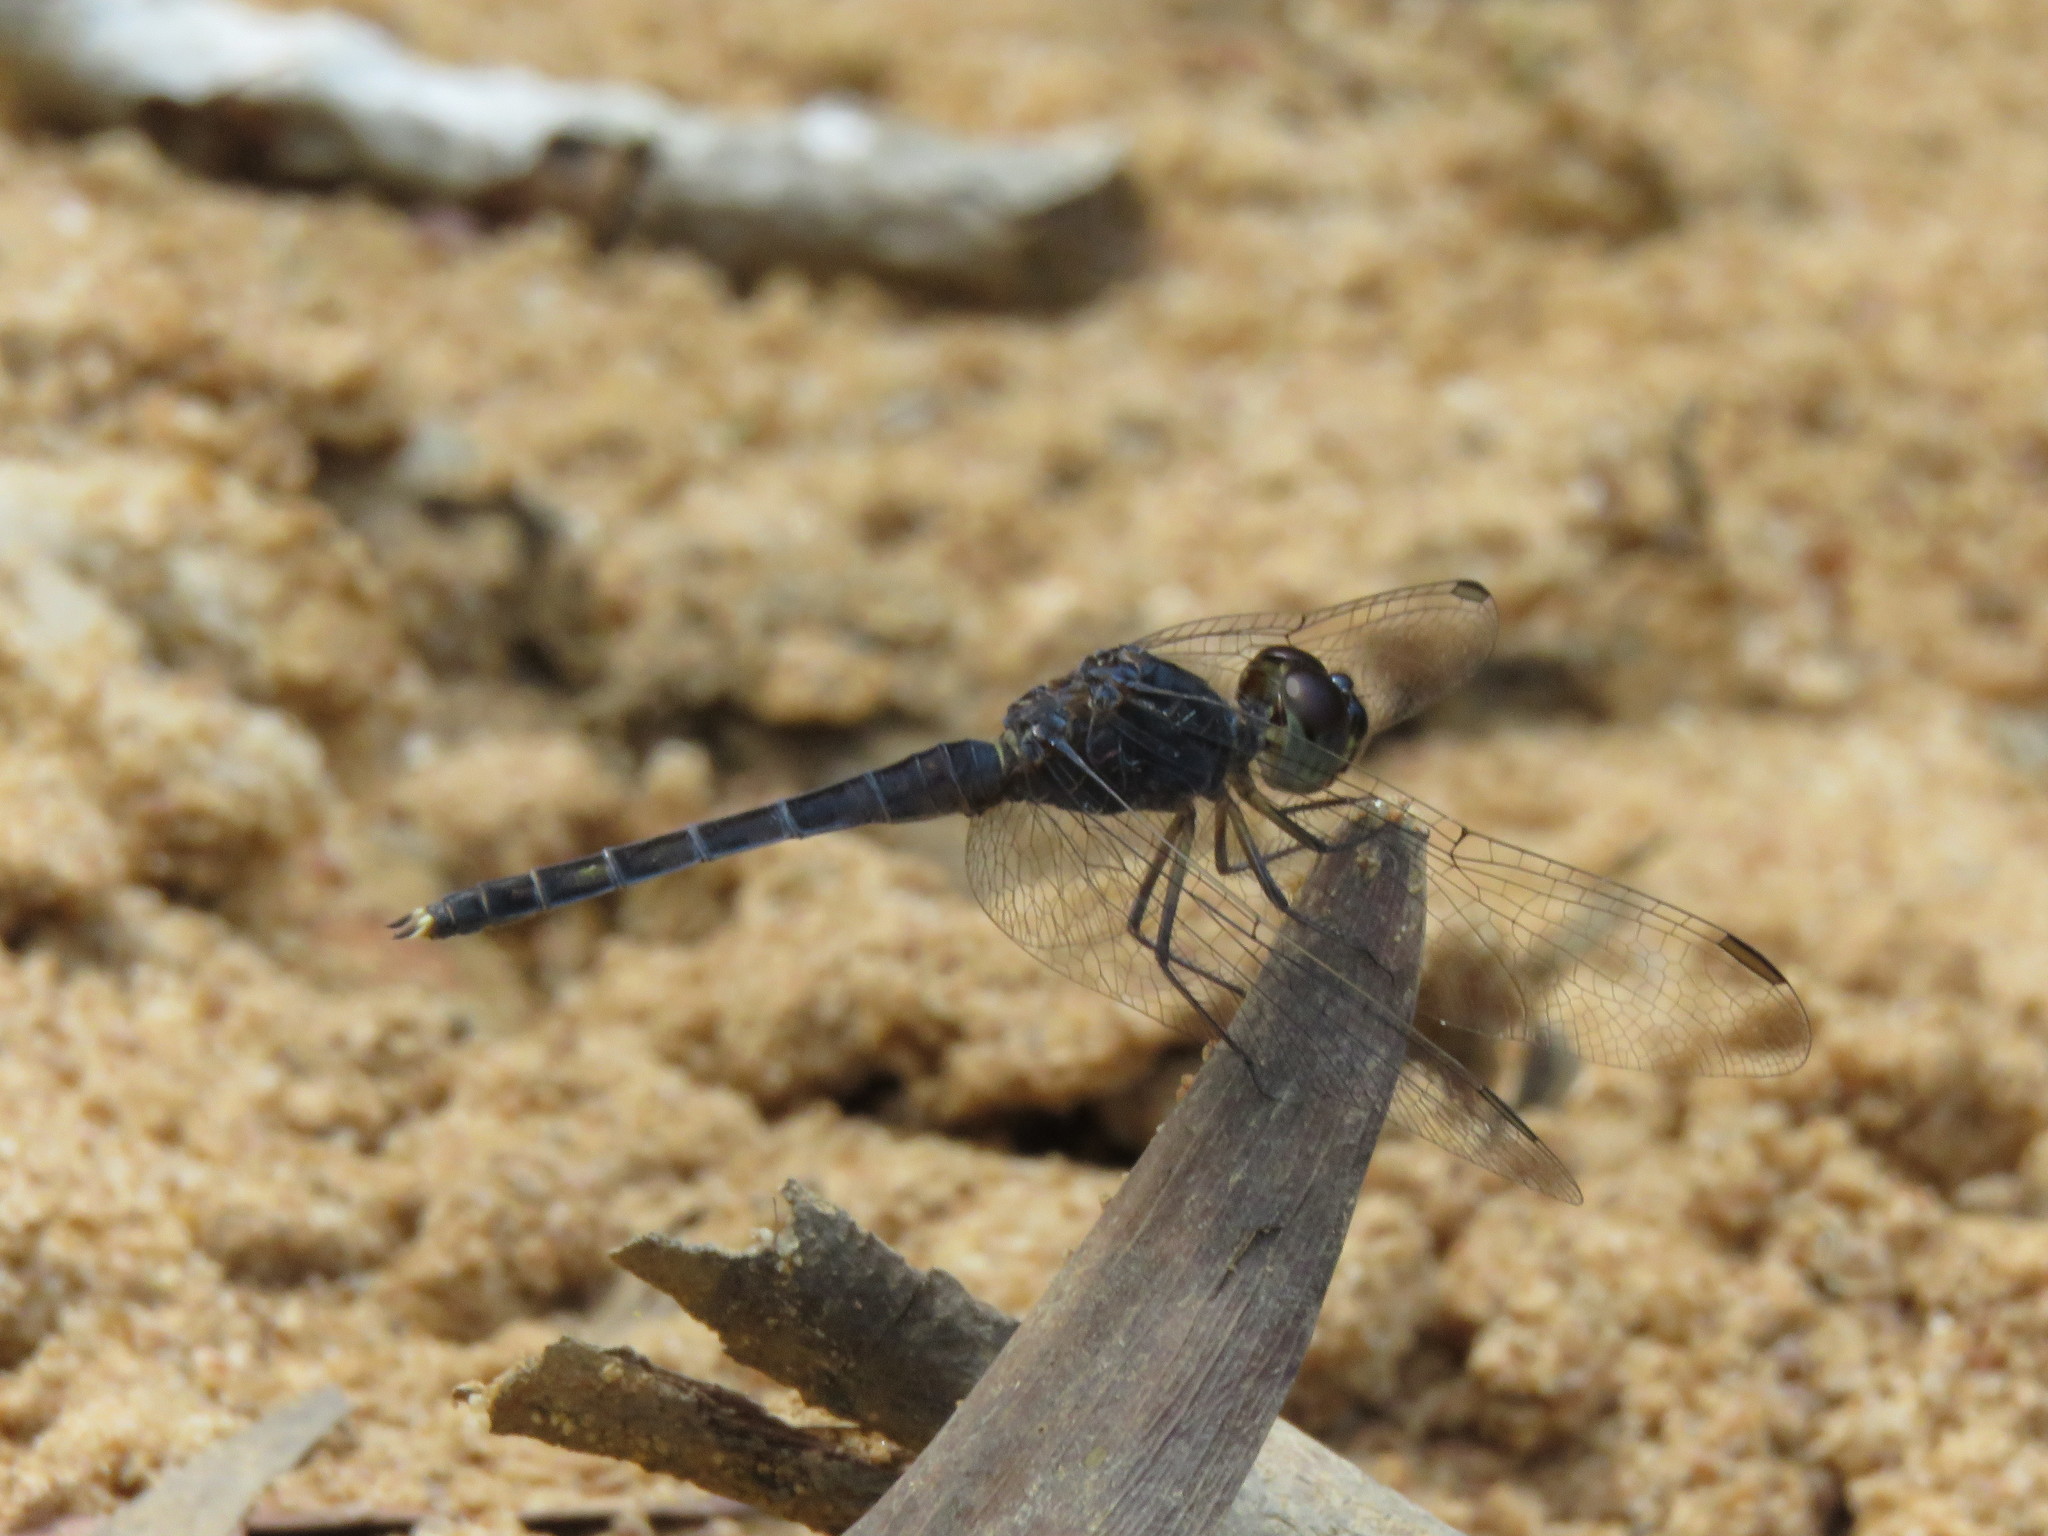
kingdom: Animalia
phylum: Arthropoda
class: Insecta
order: Odonata
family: Libellulidae
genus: Indothemis
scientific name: Indothemis carnatica
